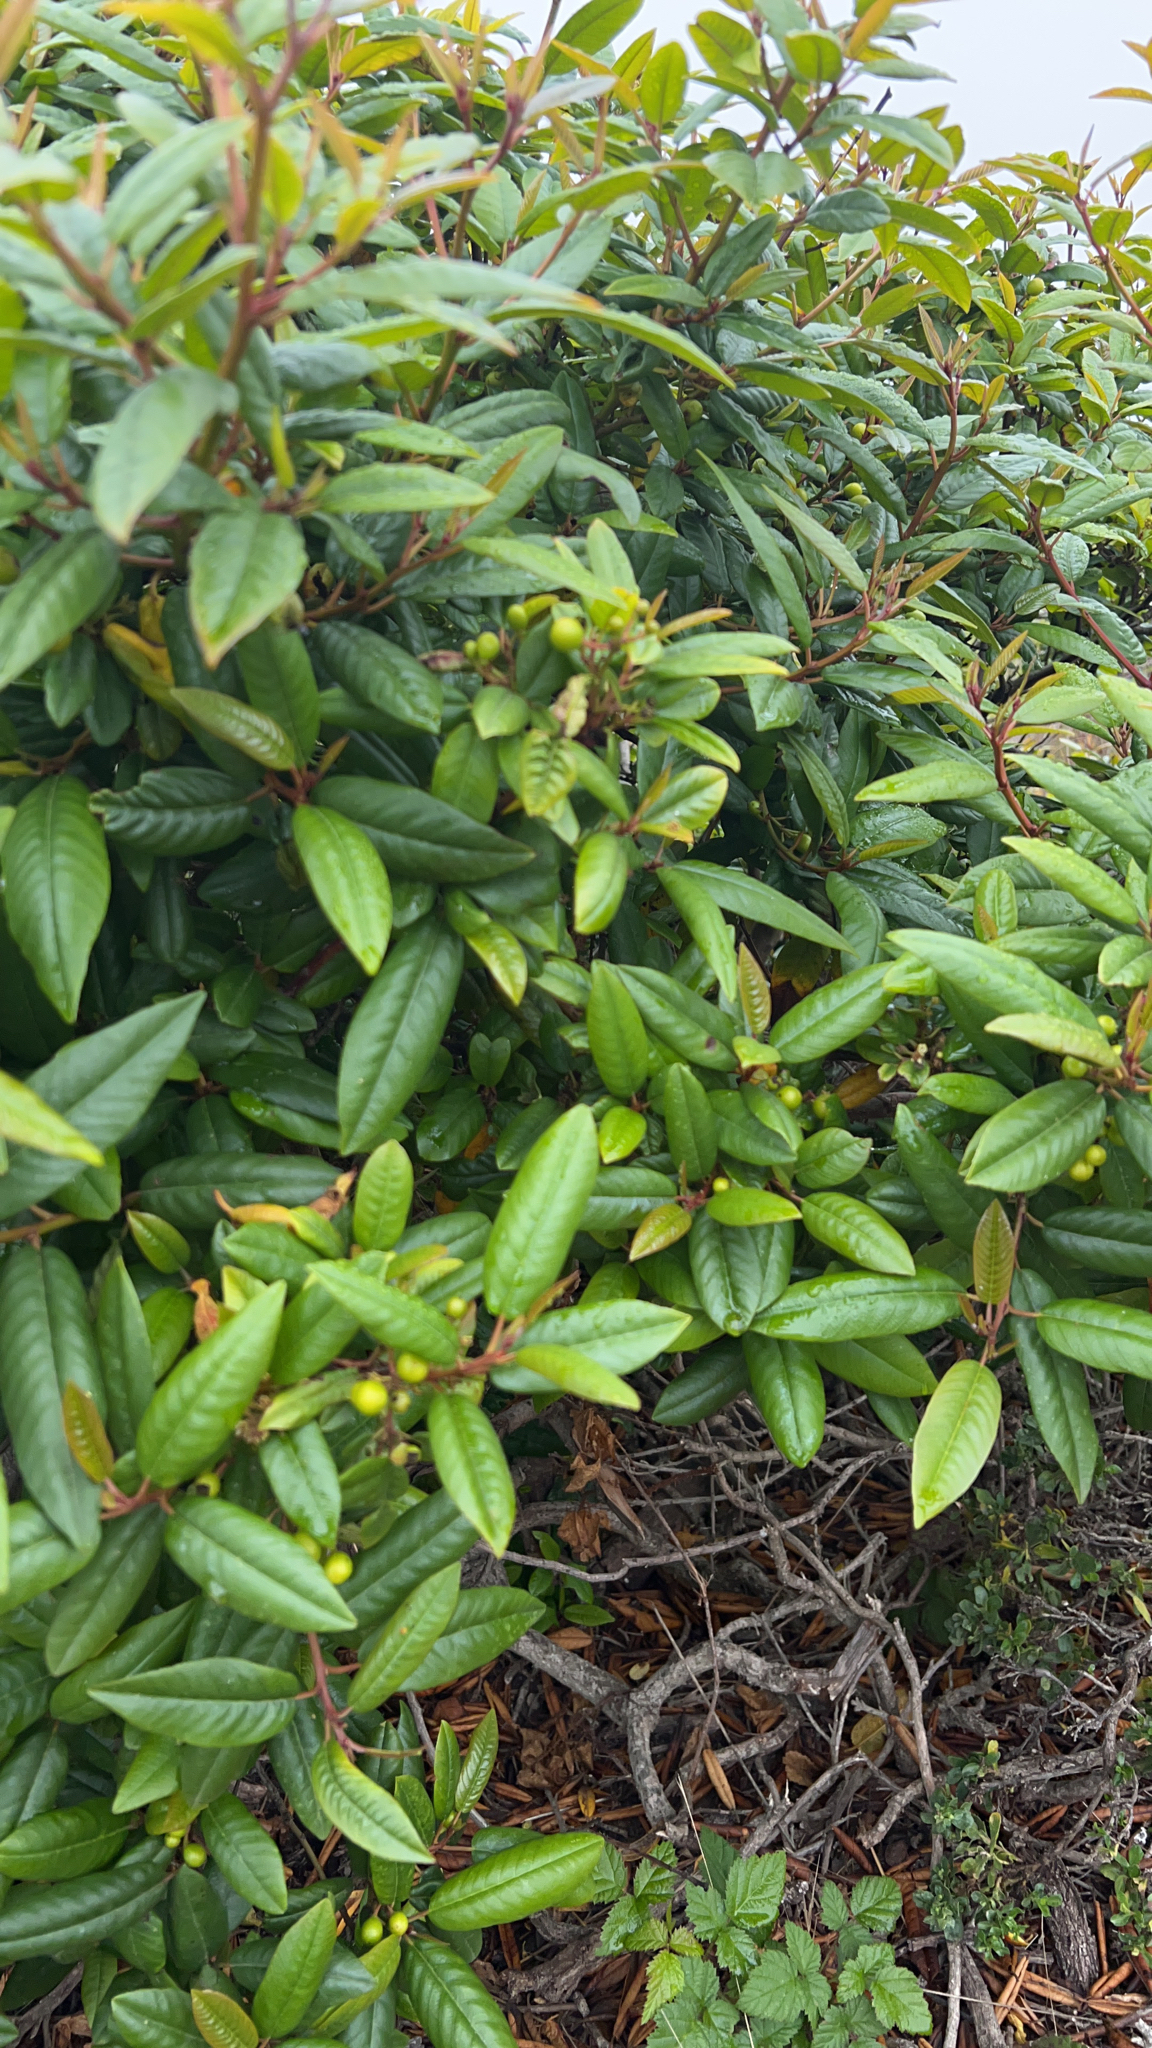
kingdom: Plantae
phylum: Tracheophyta
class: Magnoliopsida
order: Rosales
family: Rhamnaceae
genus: Frangula
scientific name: Frangula californica
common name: California buckthorn
